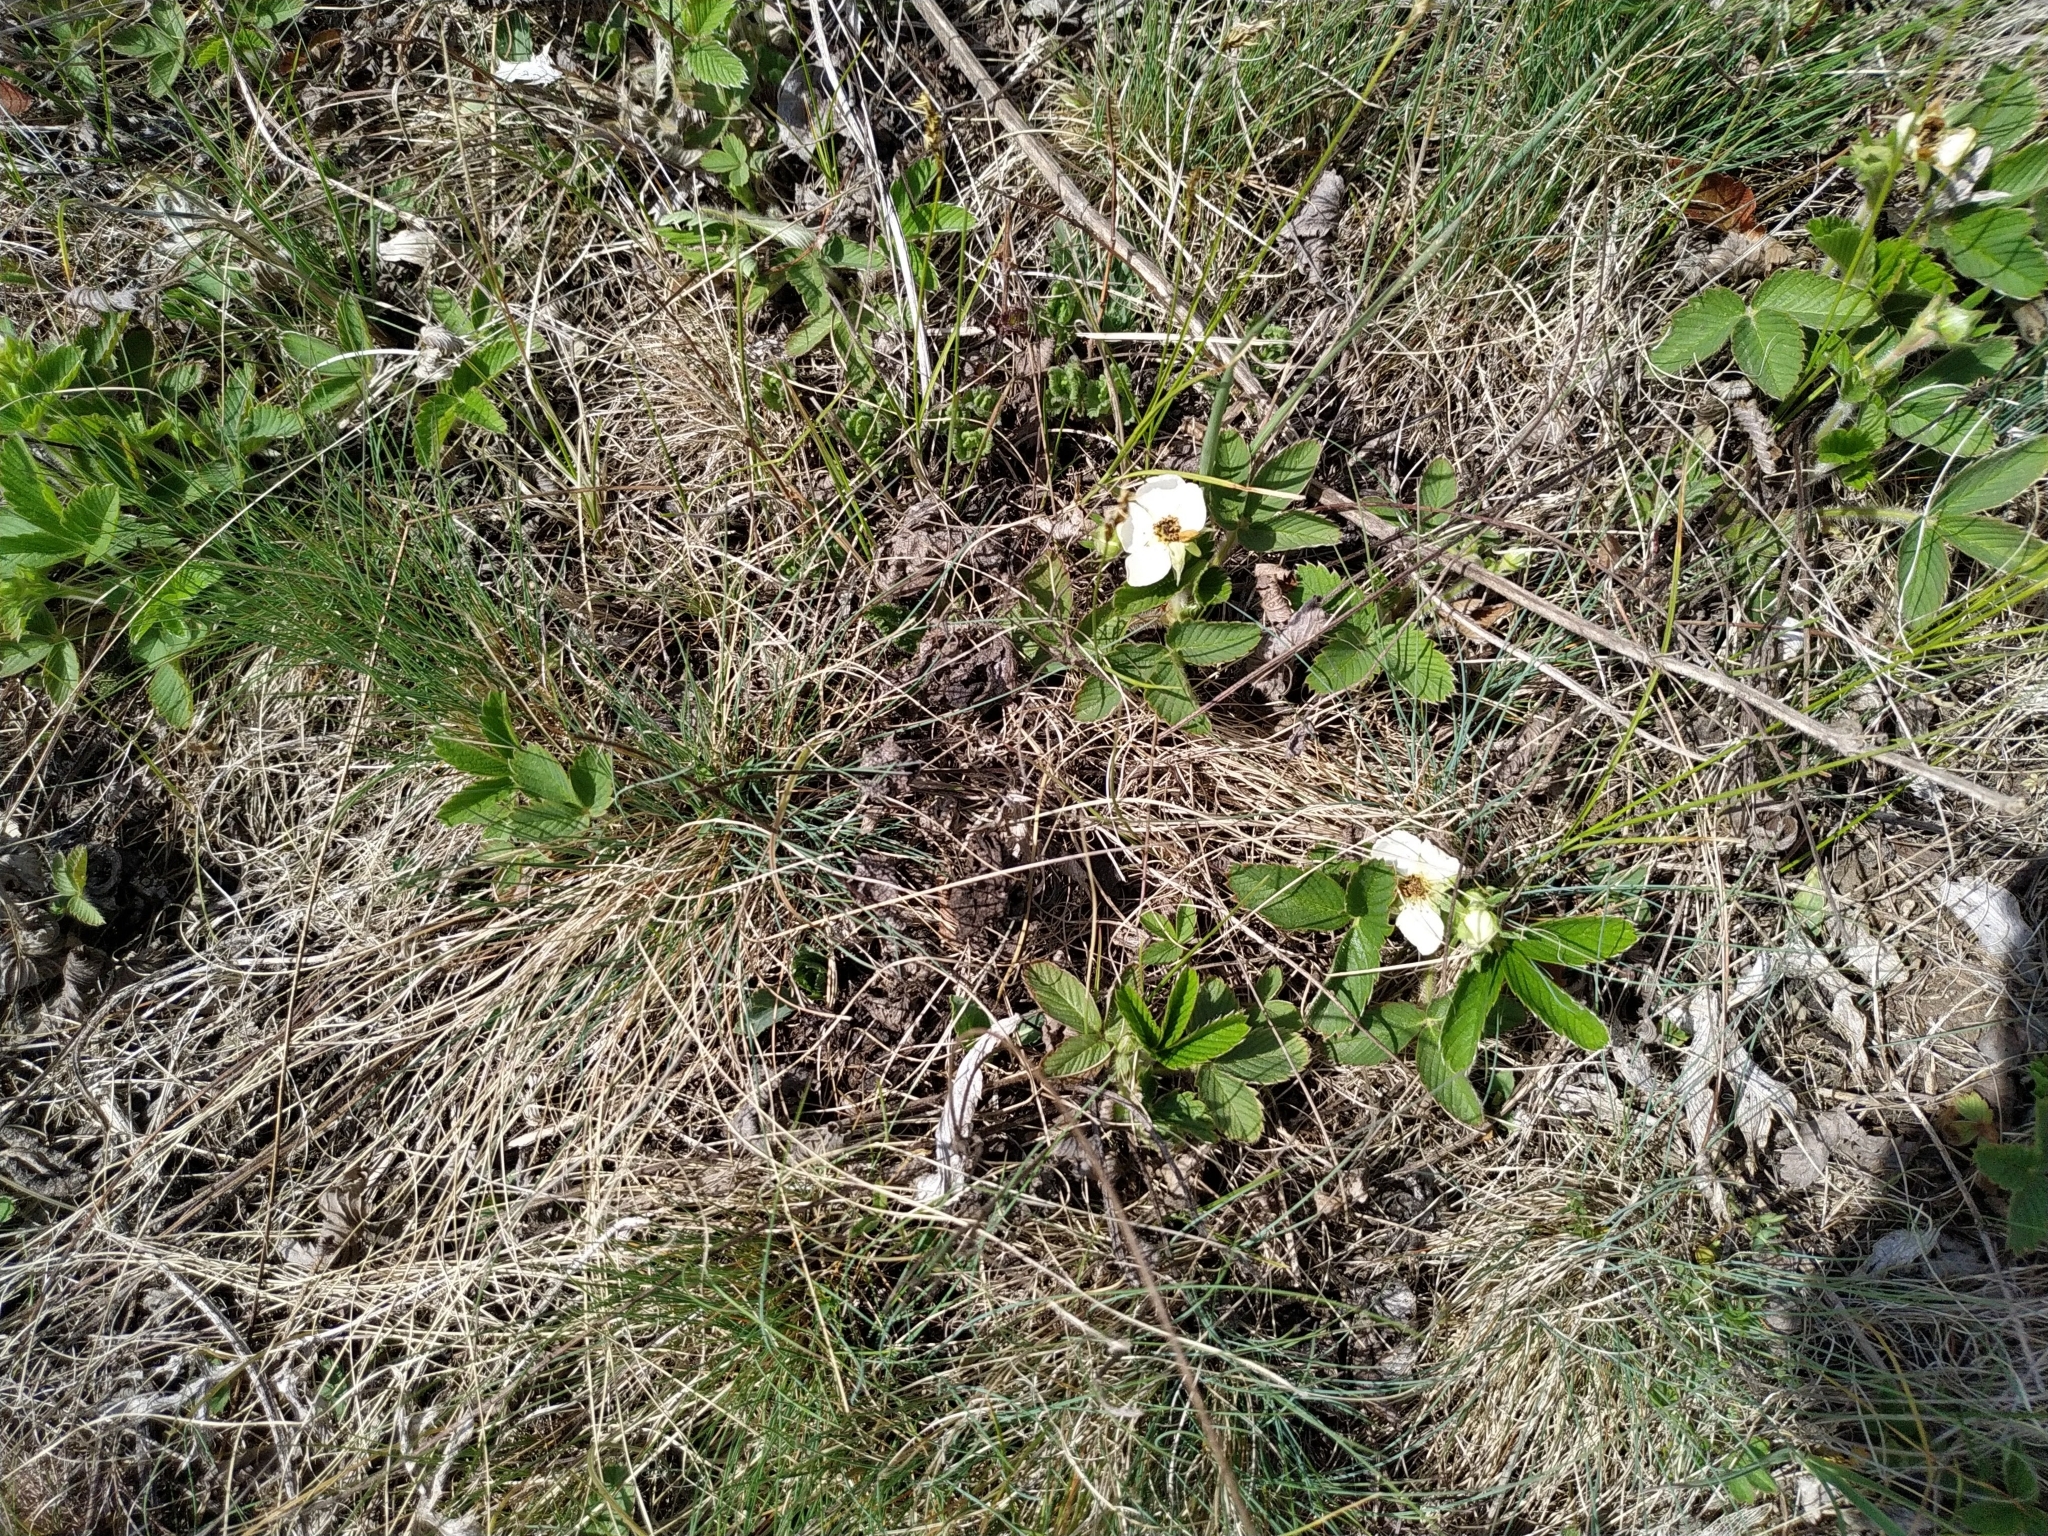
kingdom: Plantae
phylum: Tracheophyta
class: Magnoliopsida
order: Rosales
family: Rosaceae
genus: Fragaria
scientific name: Fragaria viridis
